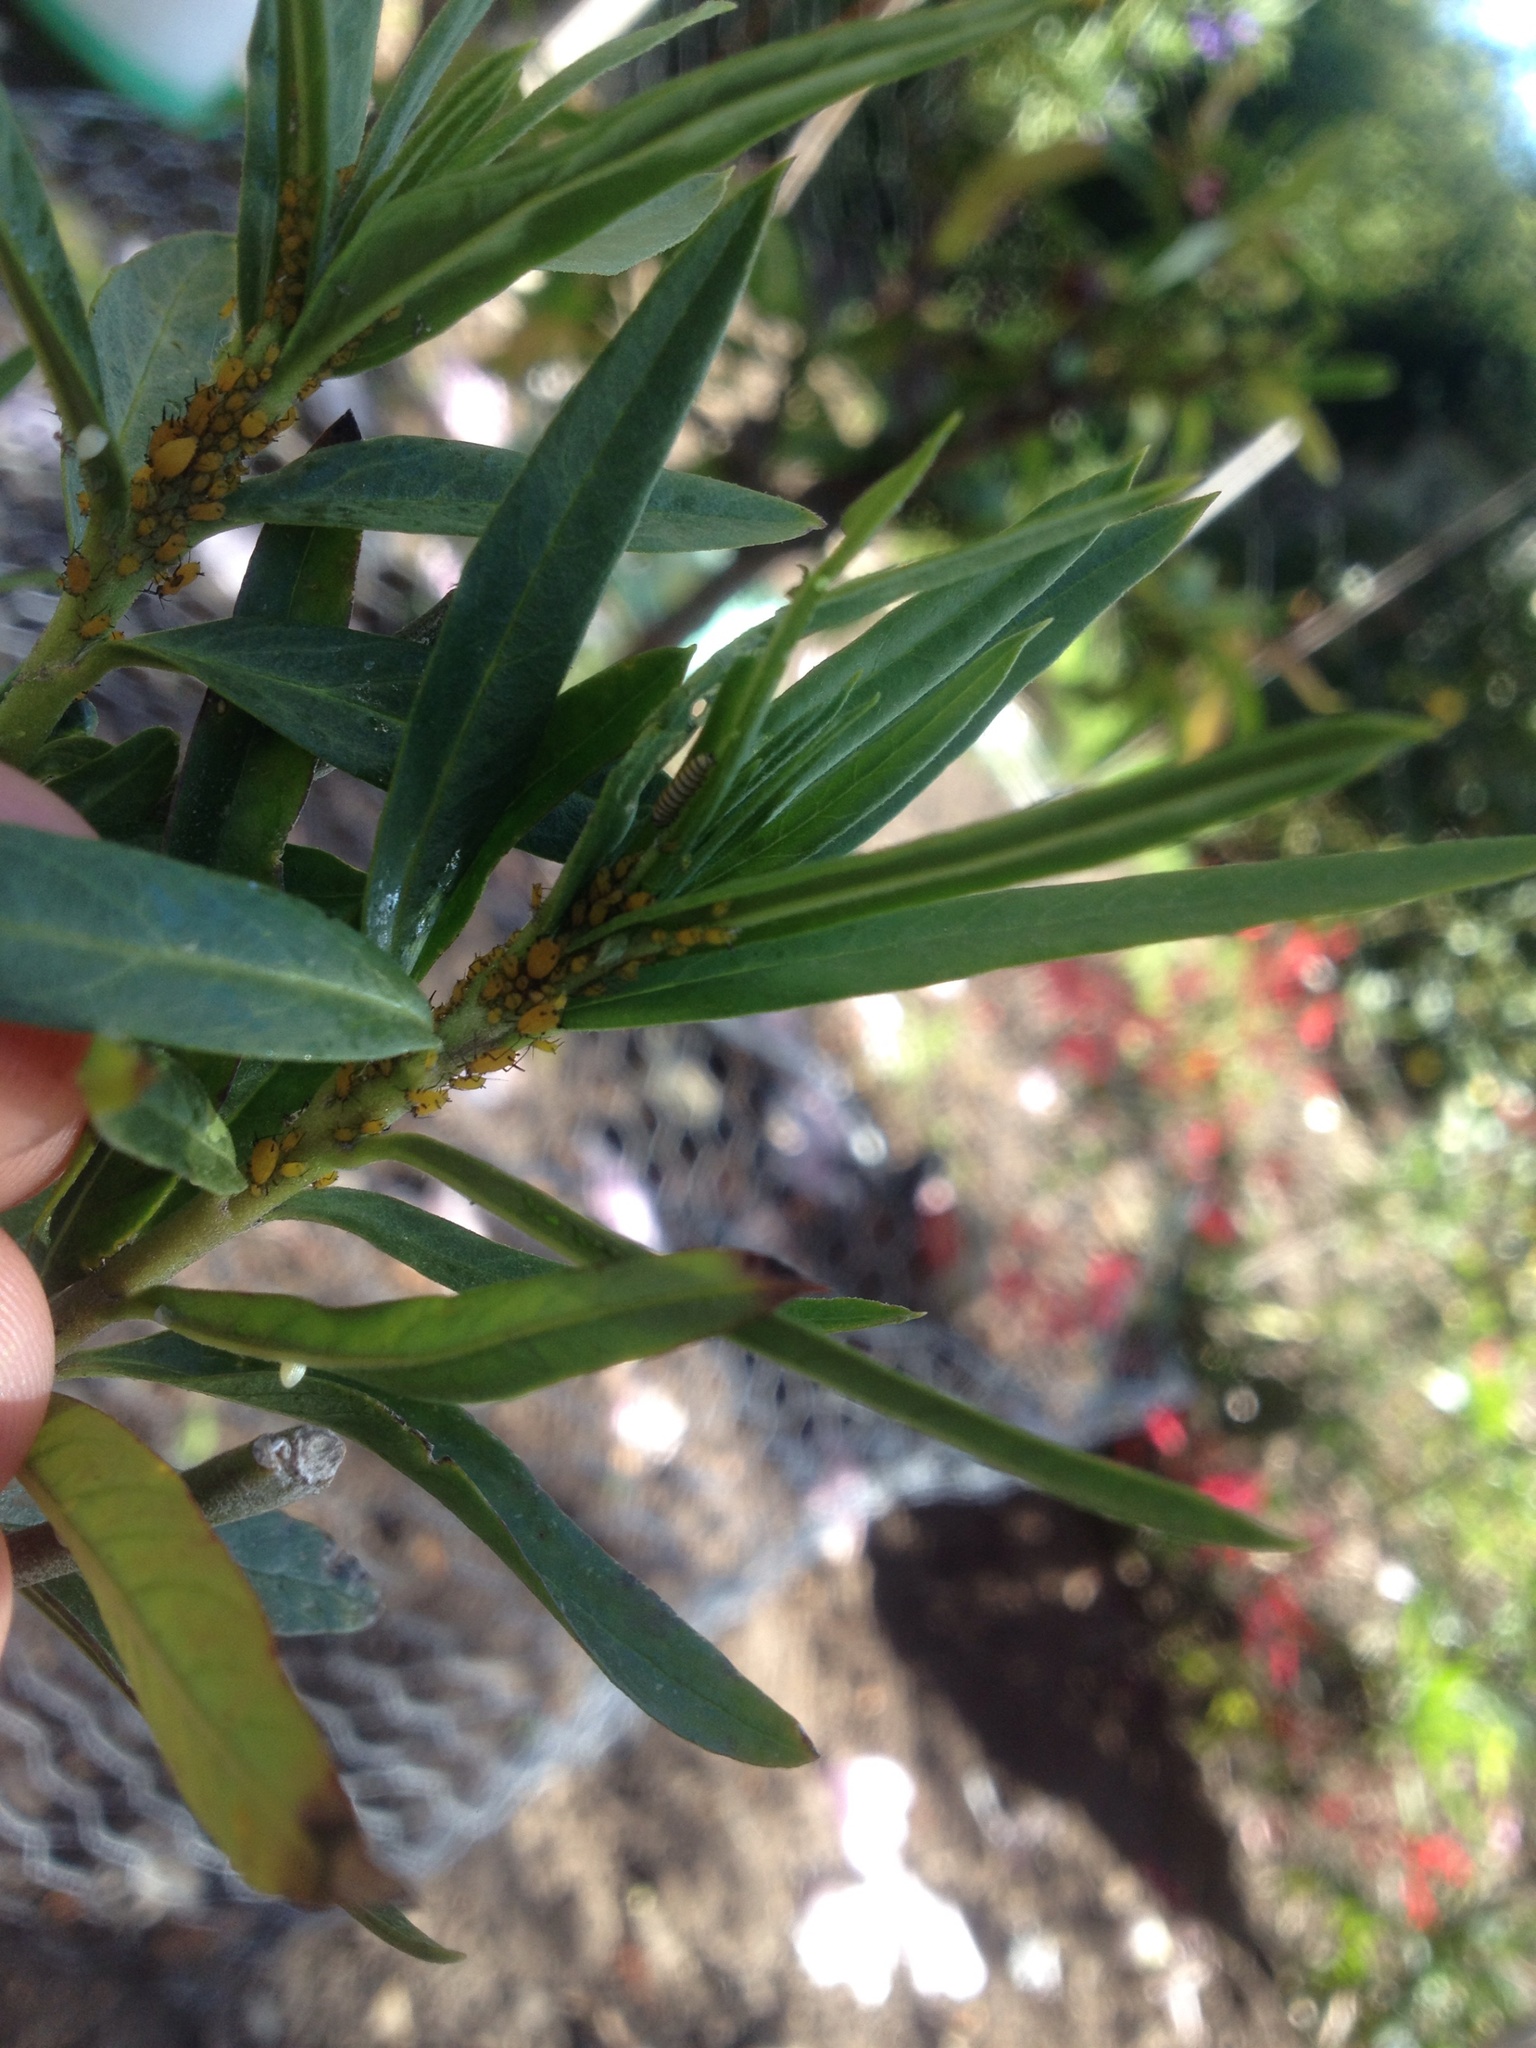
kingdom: Animalia
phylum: Arthropoda
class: Insecta
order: Hemiptera
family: Aphididae
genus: Aphis
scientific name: Aphis nerii
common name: Oleander aphid
